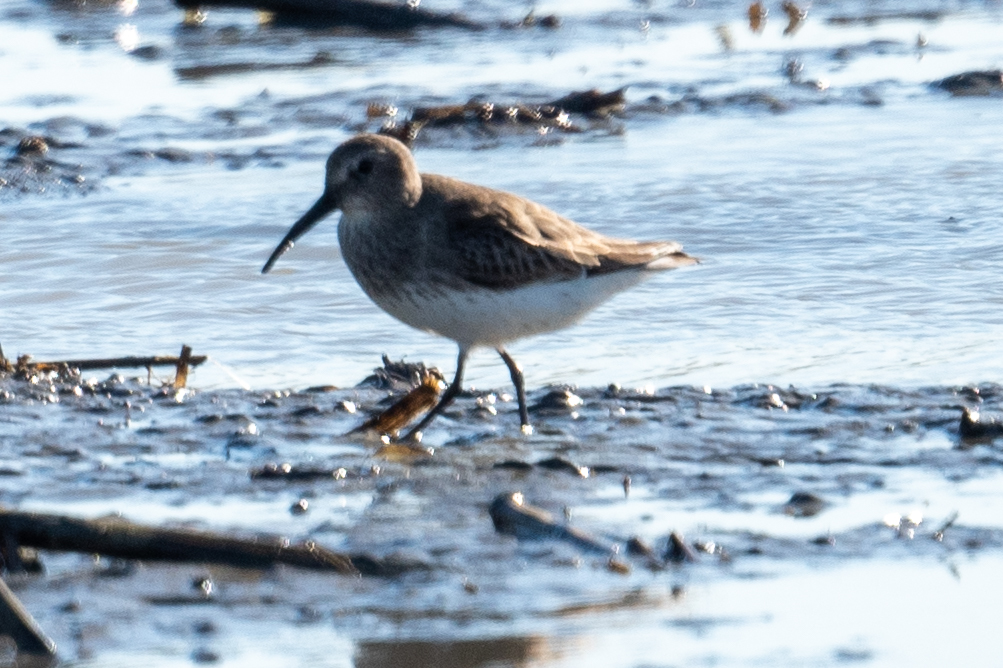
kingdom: Animalia
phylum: Chordata
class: Aves
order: Charadriiformes
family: Scolopacidae
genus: Calidris
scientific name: Calidris alpina
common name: Dunlin
